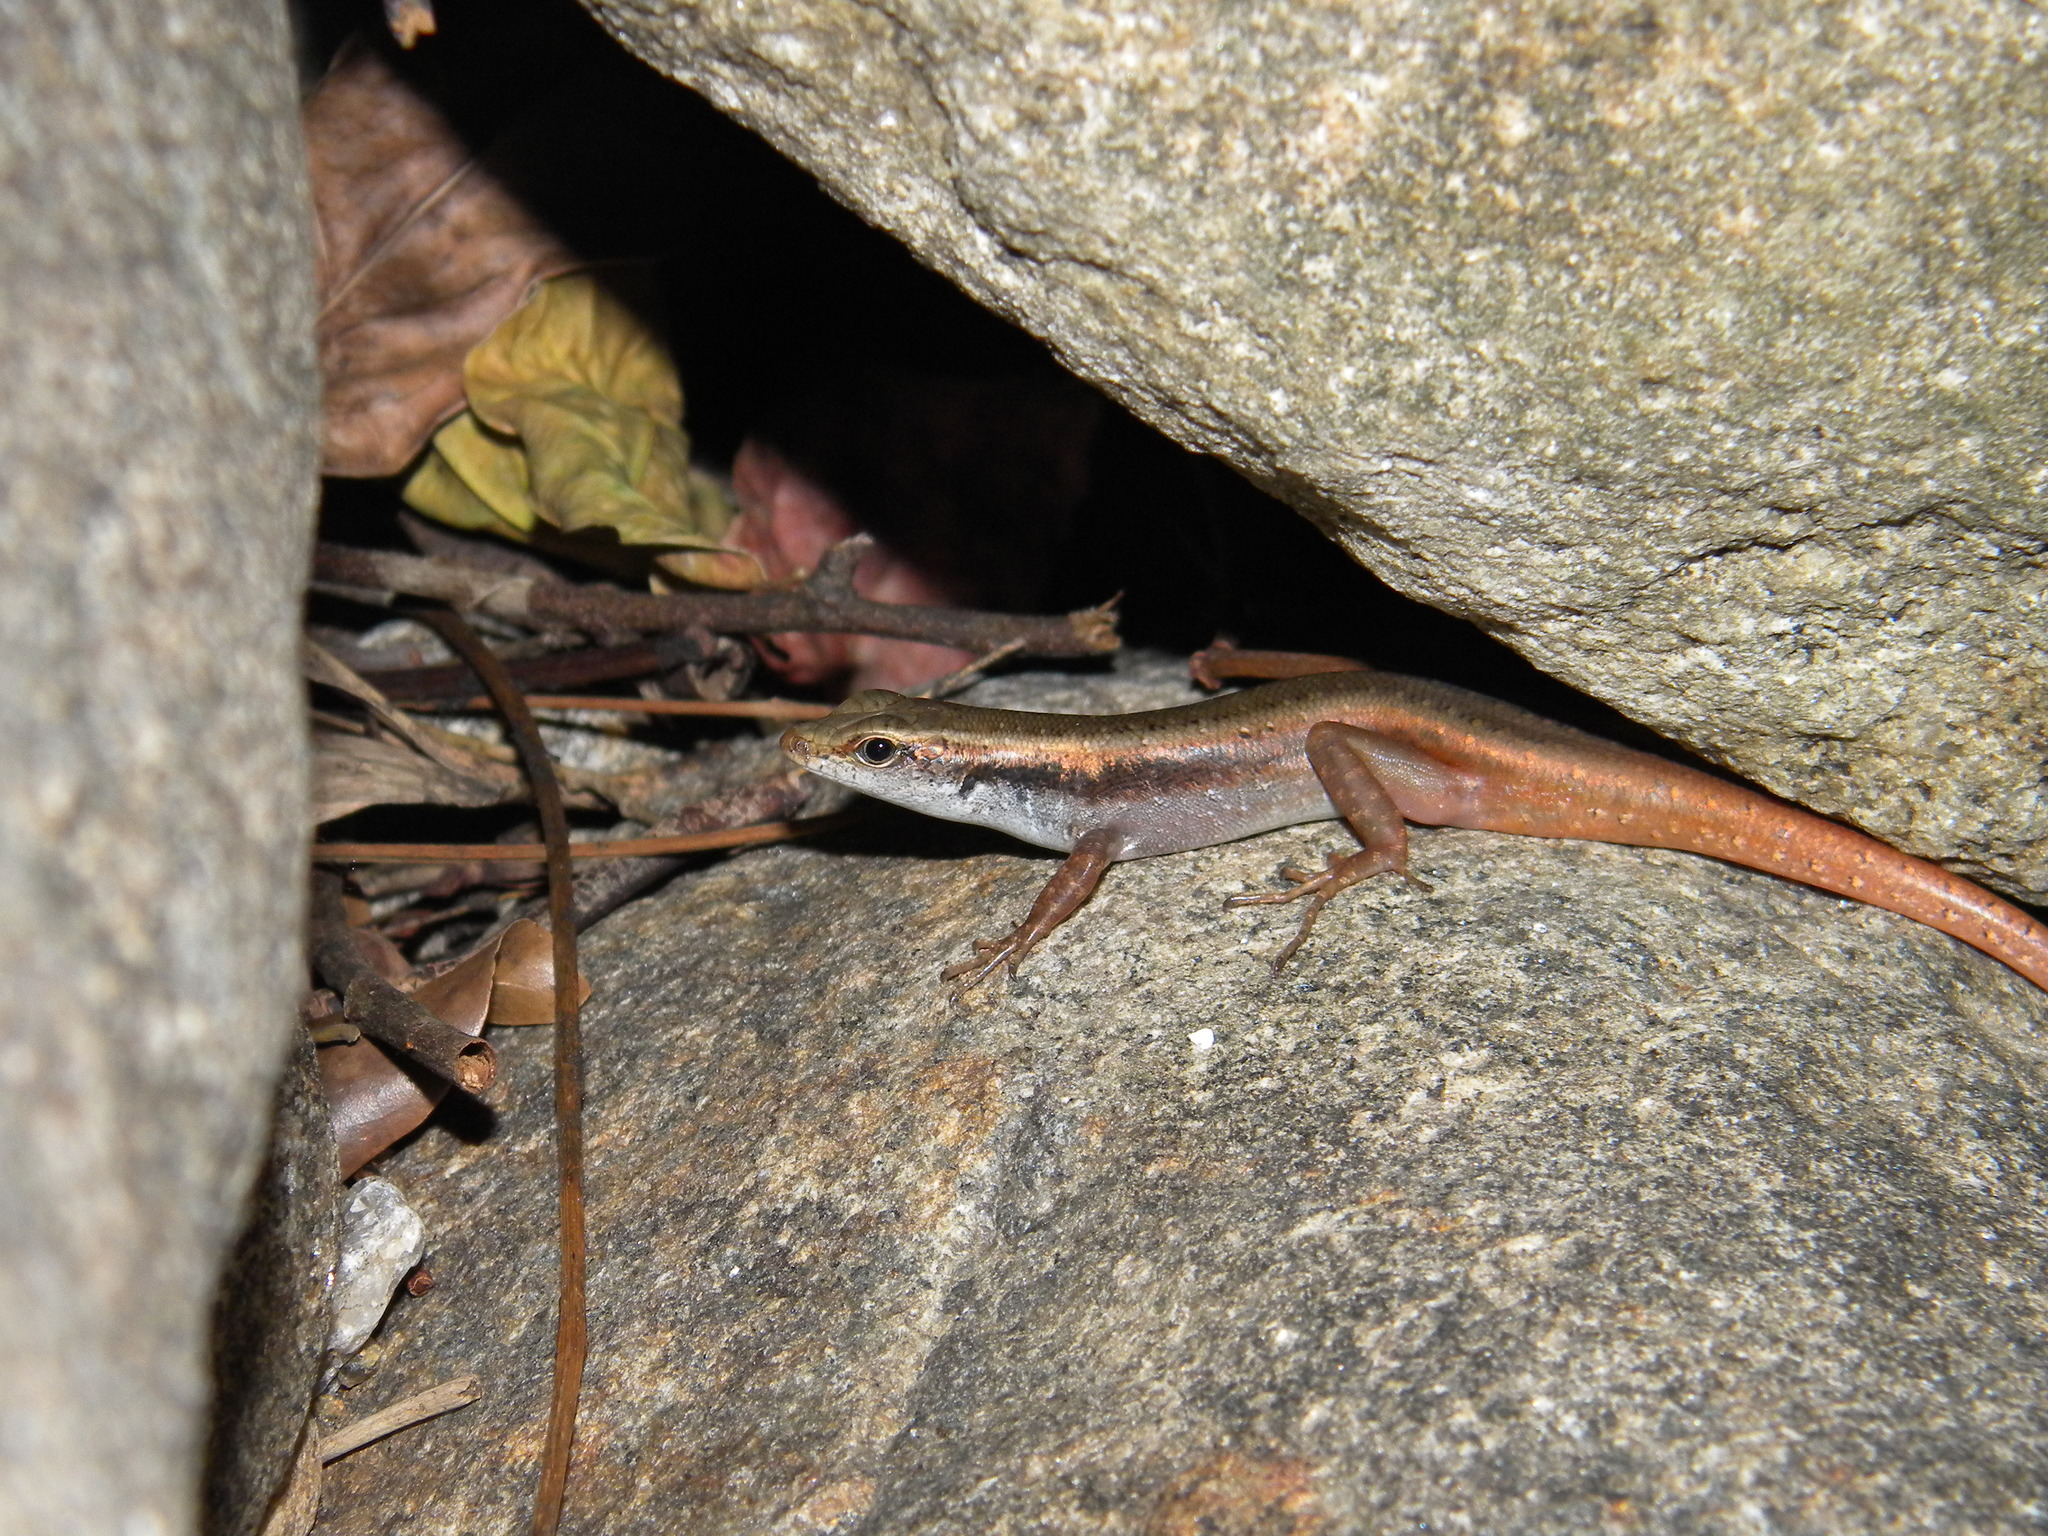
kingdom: Animalia
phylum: Chordata
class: Squamata
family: Scincidae
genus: Sphenomorphus
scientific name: Sphenomorphus dussumieri
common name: Dussumier's forest skink
